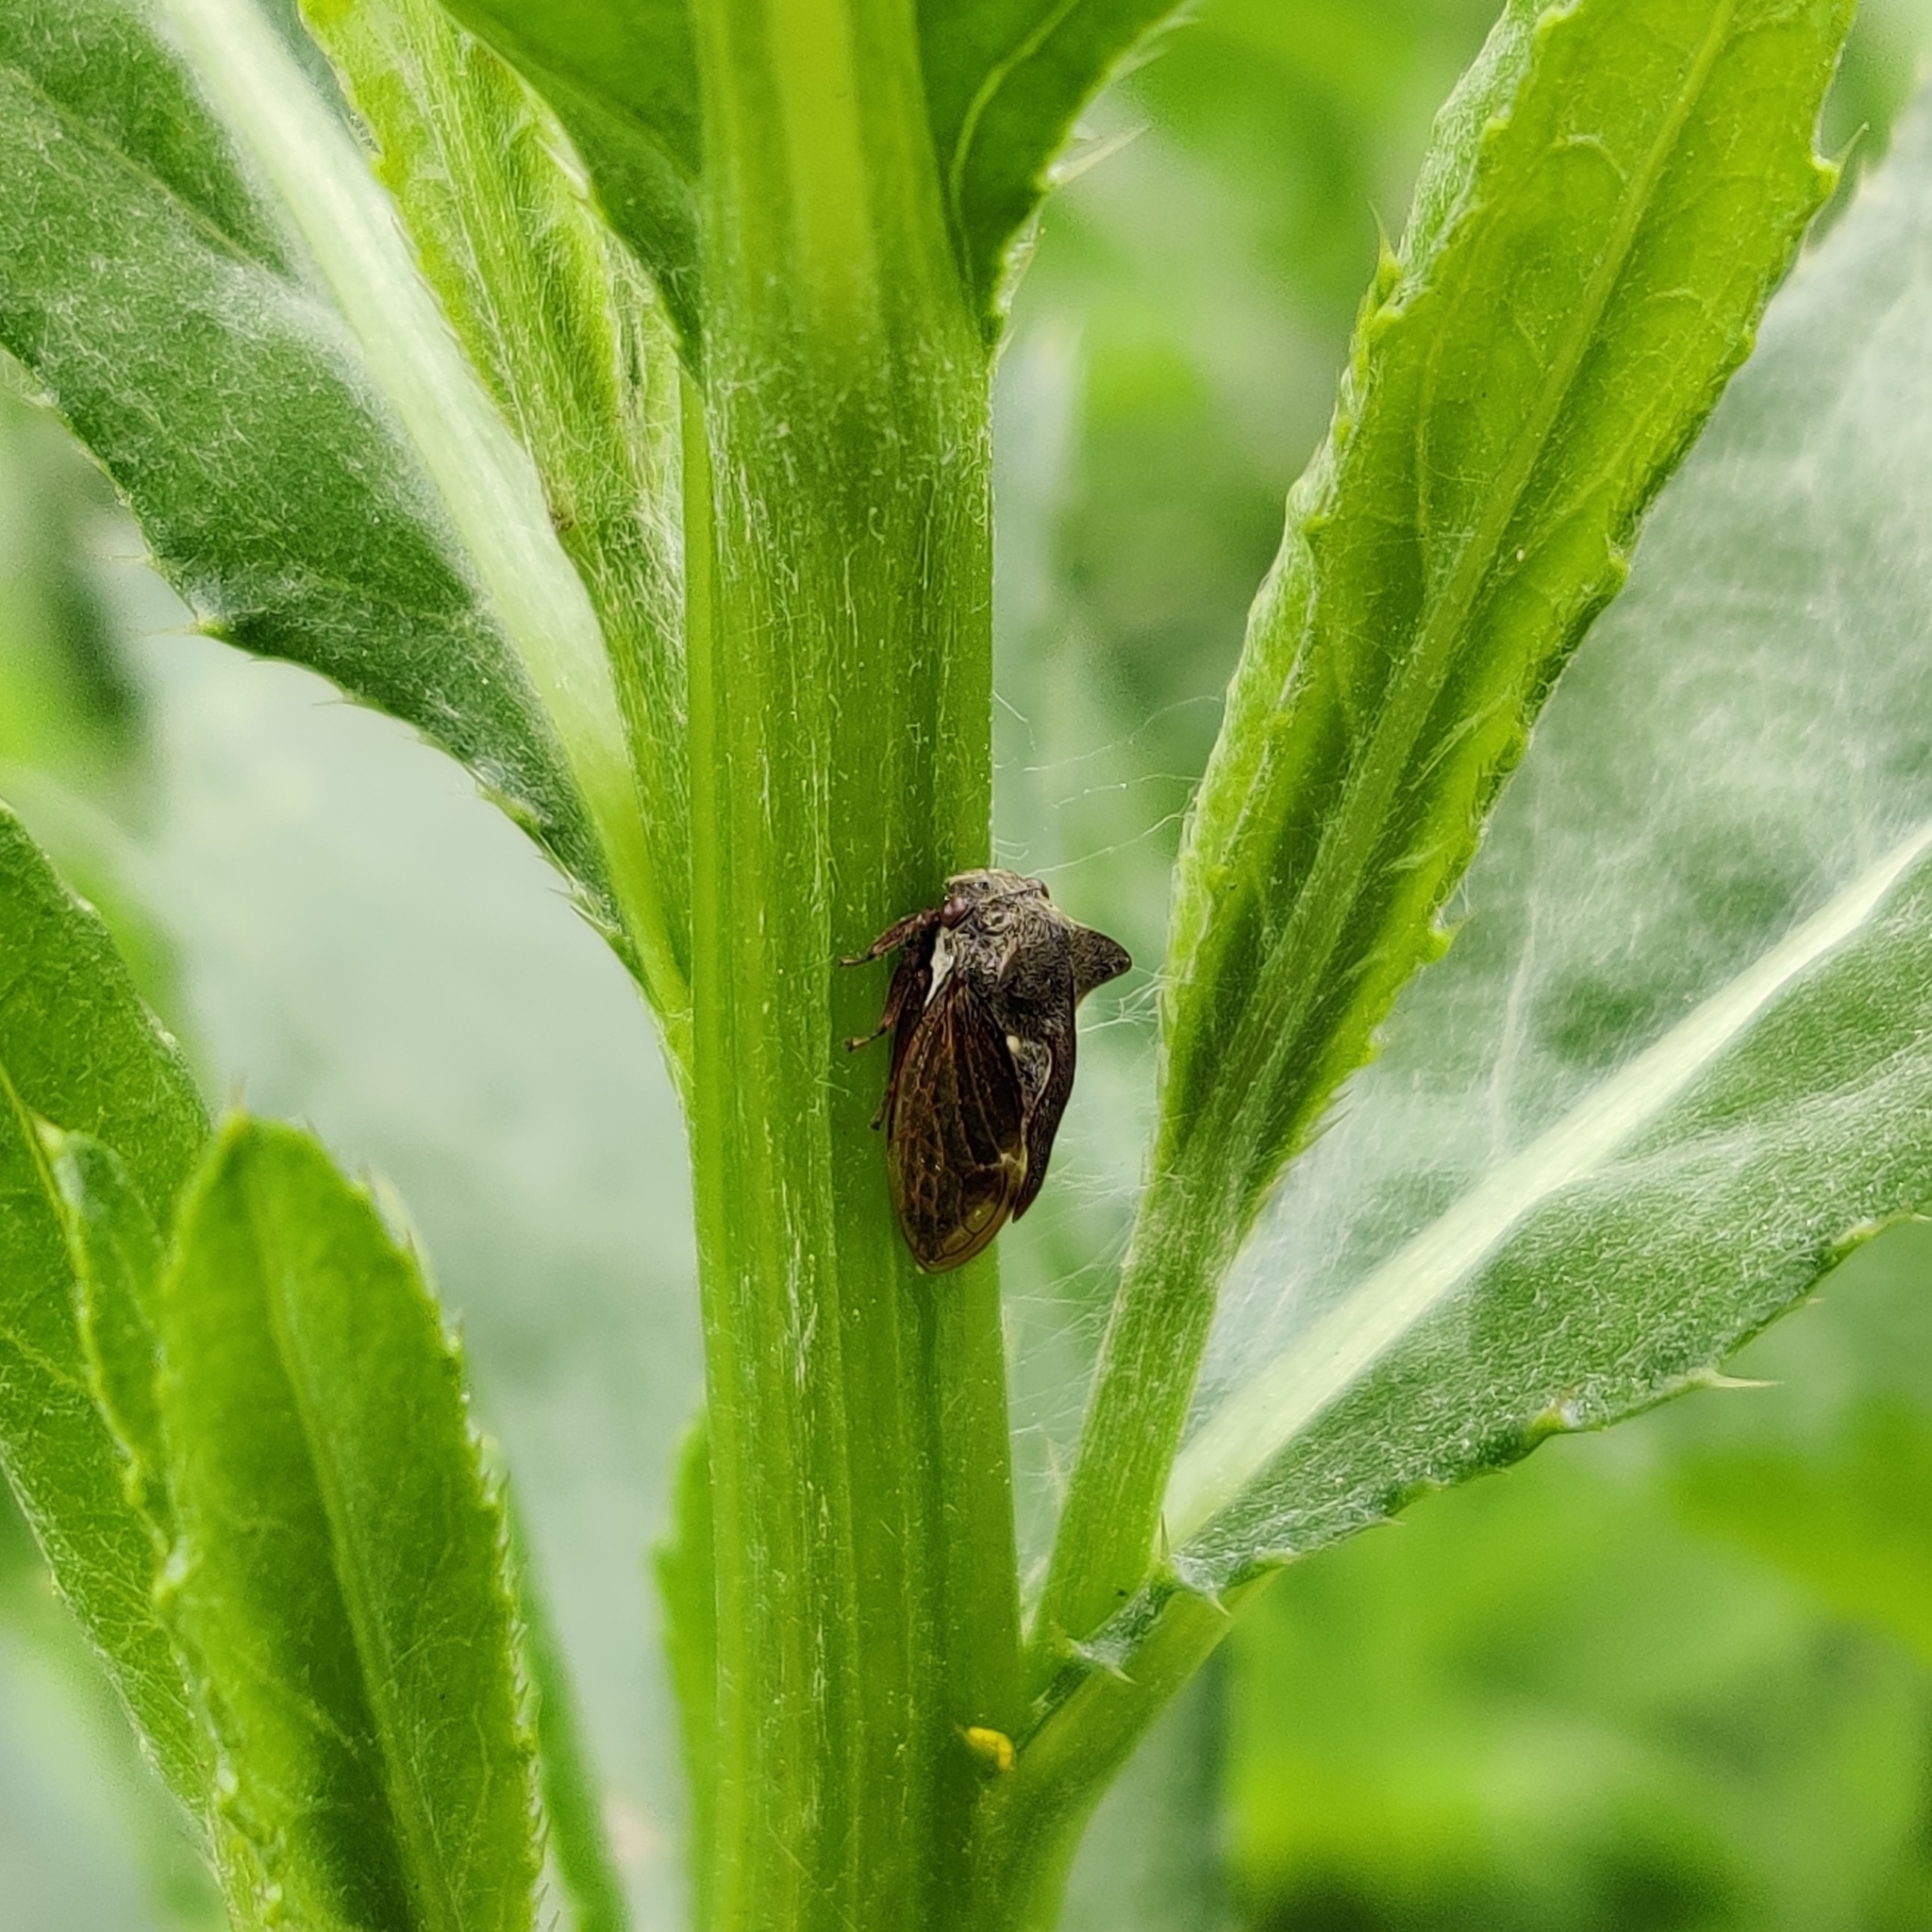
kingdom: Animalia
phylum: Arthropoda
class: Insecta
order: Hemiptera
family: Membracidae
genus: Centrotus
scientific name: Centrotus cornuta
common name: Treehopper
